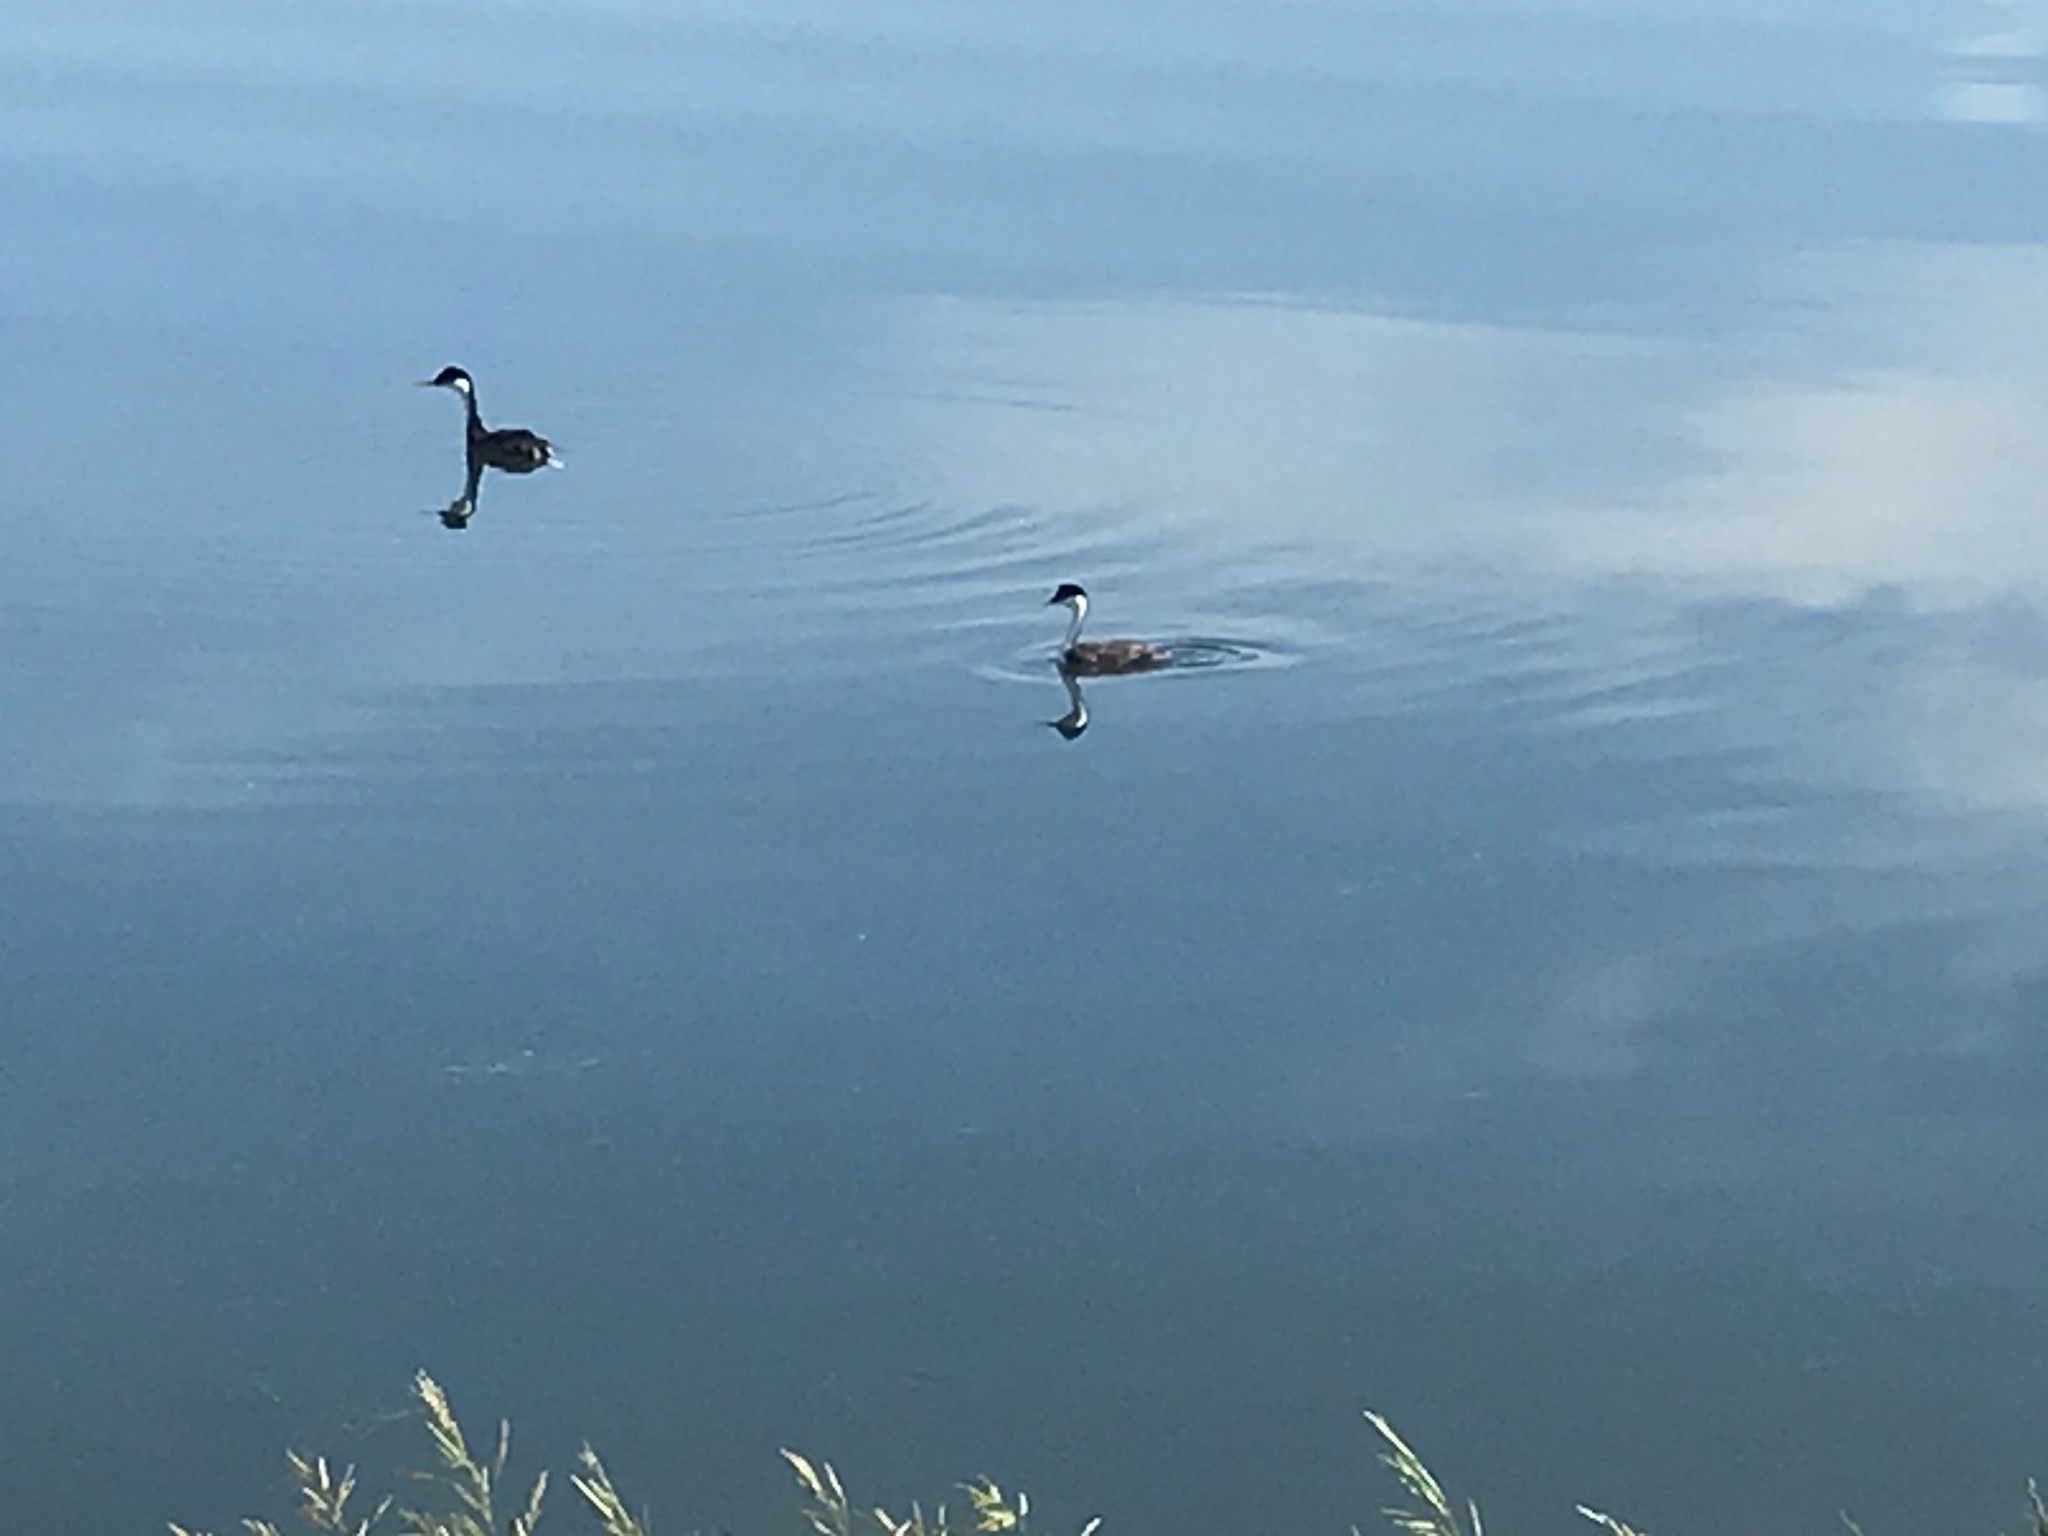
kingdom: Animalia
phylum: Chordata
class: Aves
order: Podicipediformes
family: Podicipedidae
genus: Aechmophorus
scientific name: Aechmophorus occidentalis
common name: Western grebe
